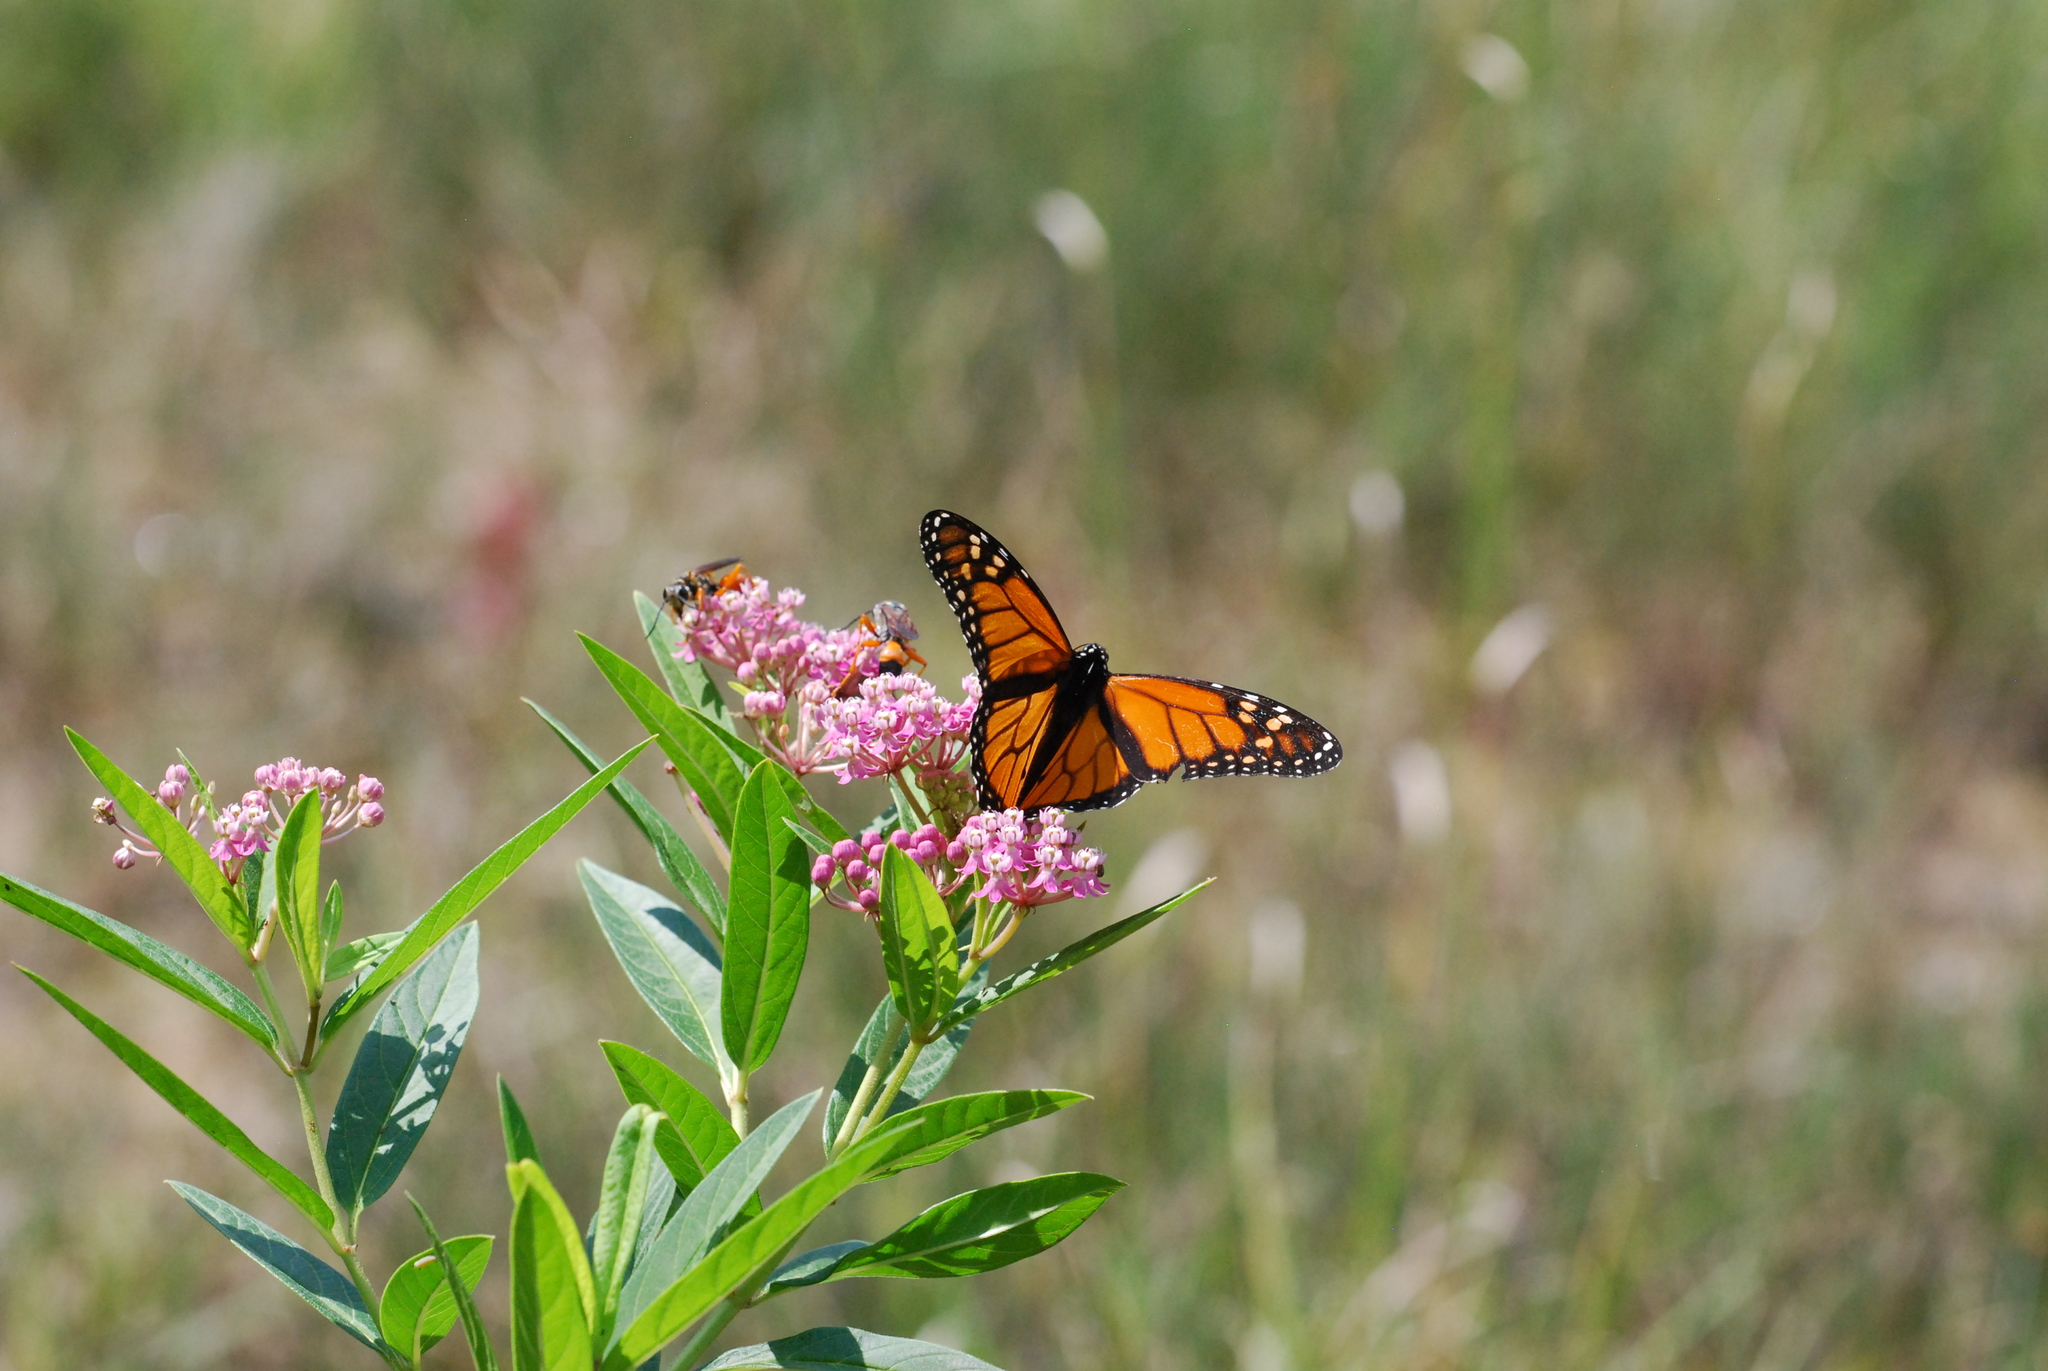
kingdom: Animalia
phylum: Arthropoda
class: Insecta
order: Lepidoptera
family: Nymphalidae
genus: Danaus
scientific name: Danaus plexippus
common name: Monarch
